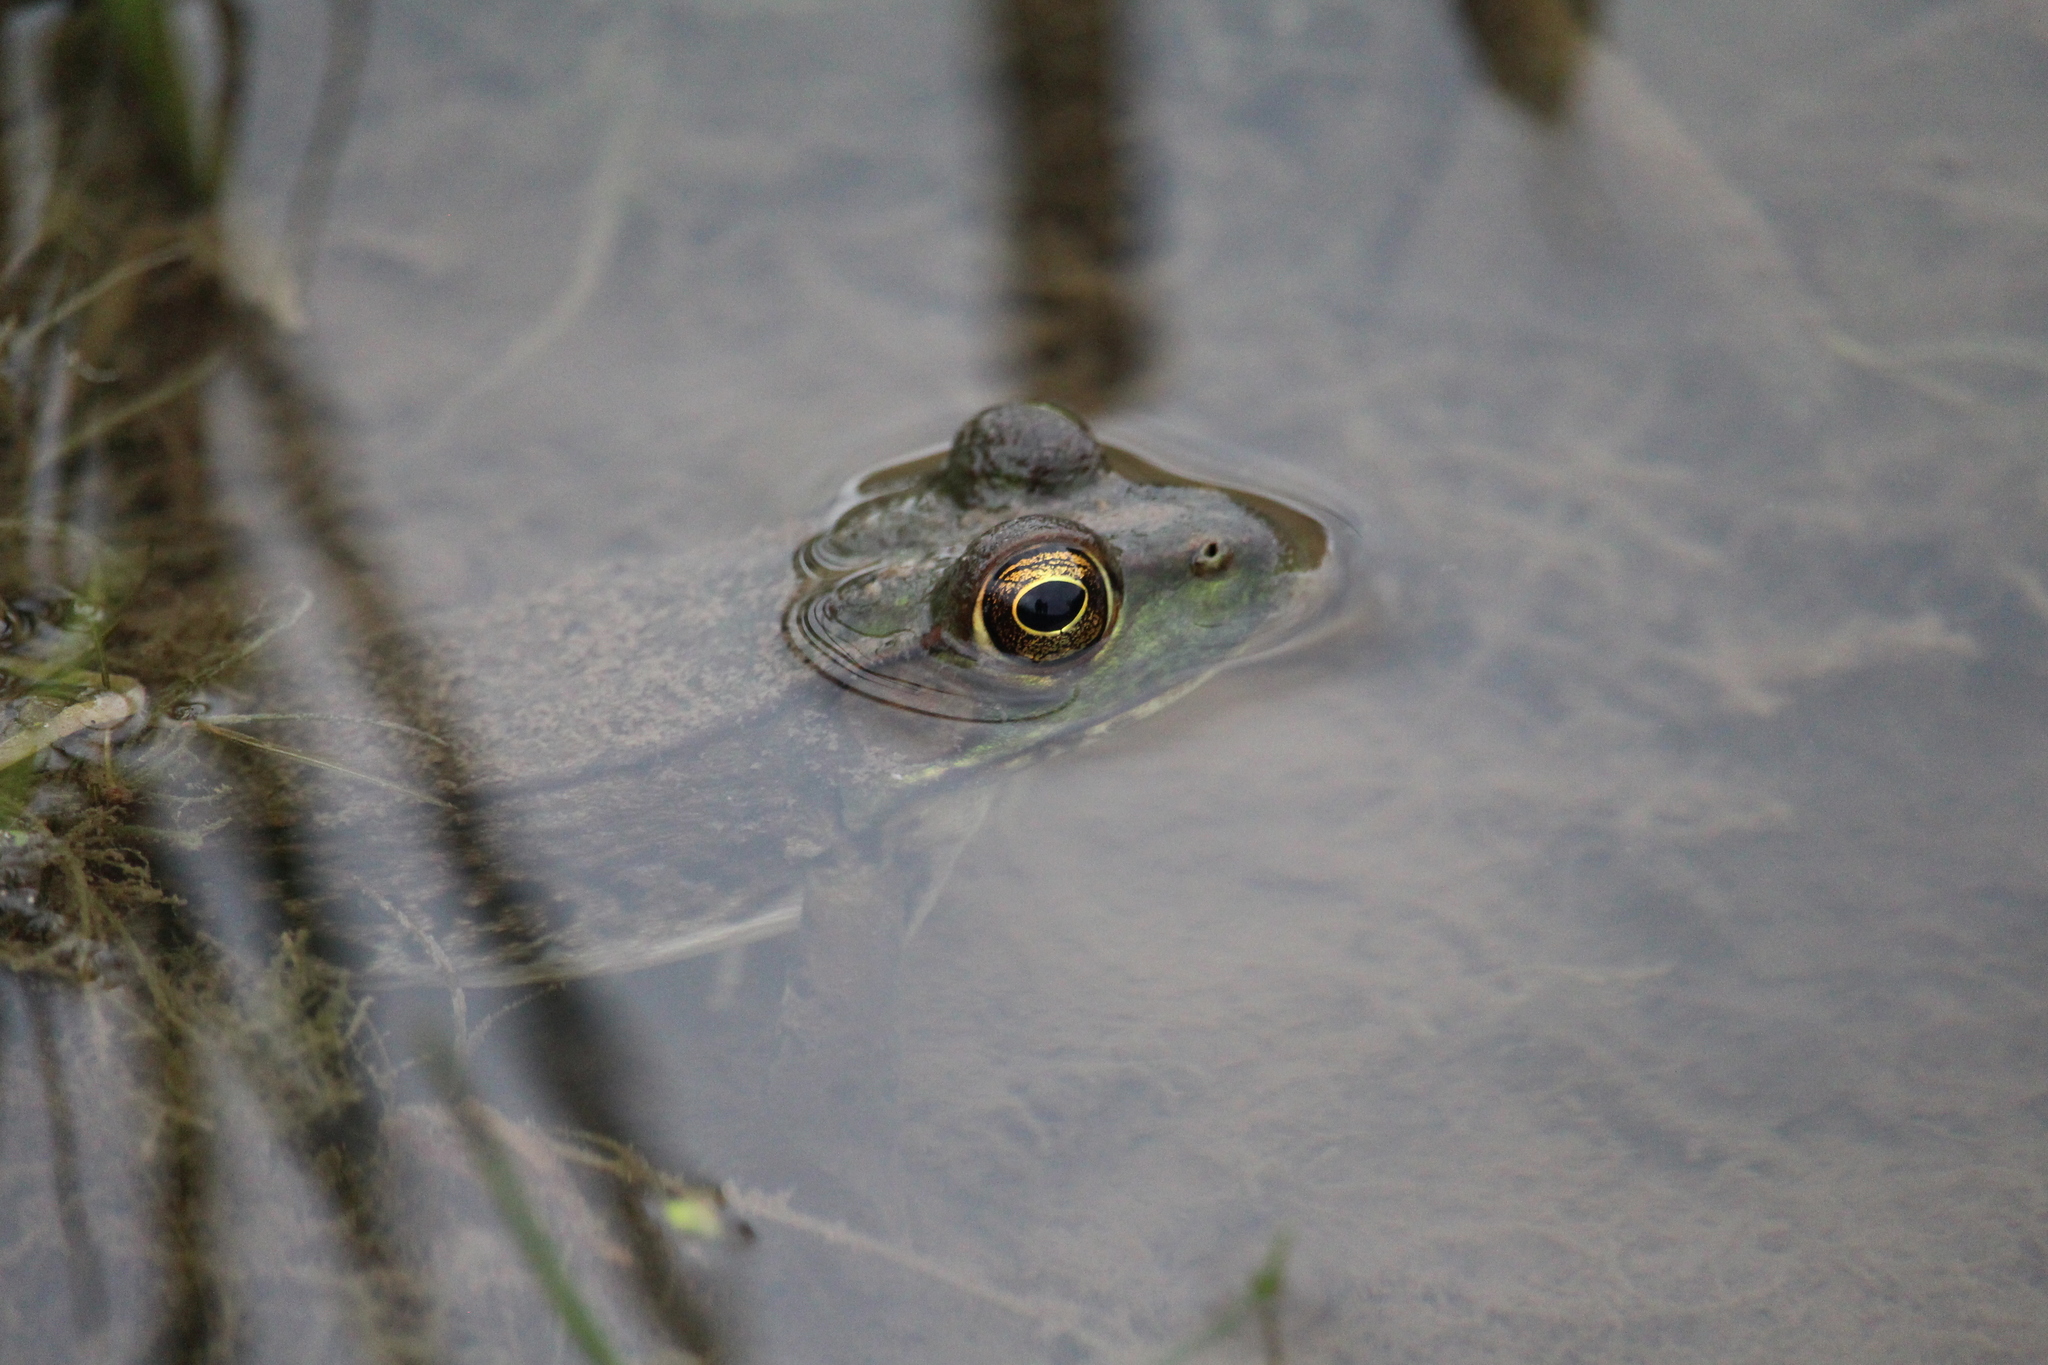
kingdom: Animalia
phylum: Chordata
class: Amphibia
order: Anura
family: Ranidae
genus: Lithobates
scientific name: Lithobates clamitans
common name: Green frog
